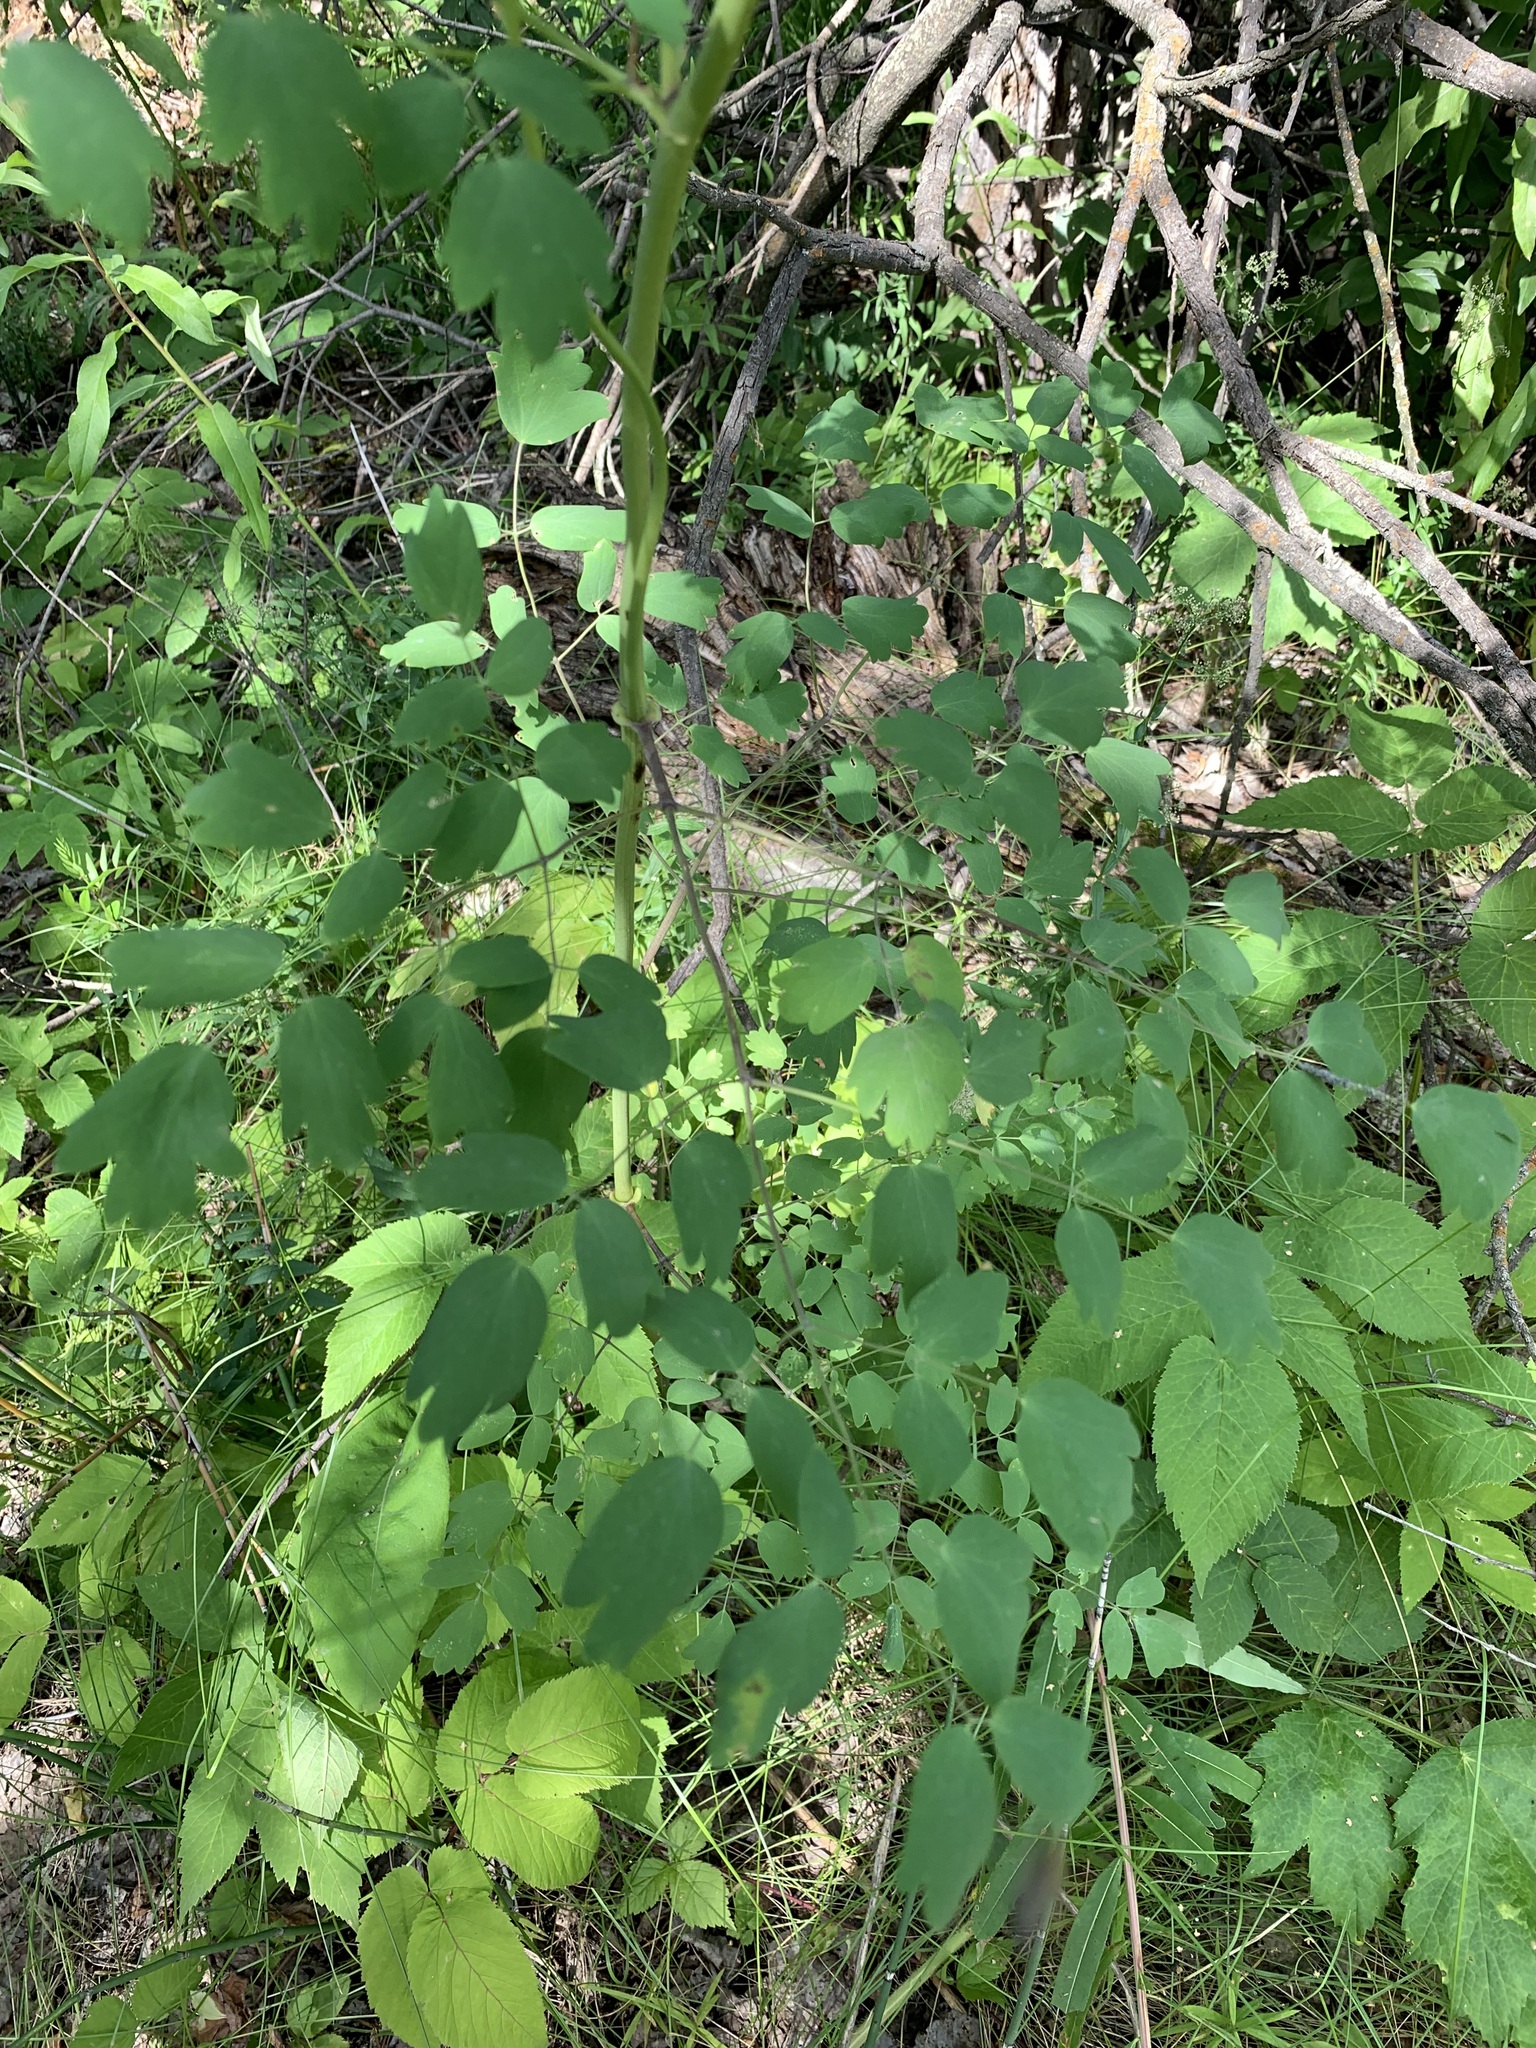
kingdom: Plantae
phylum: Tracheophyta
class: Magnoliopsida
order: Ranunculales
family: Ranunculaceae
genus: Thalictrum
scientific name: Thalictrum minus
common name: Lesser meadow-rue
